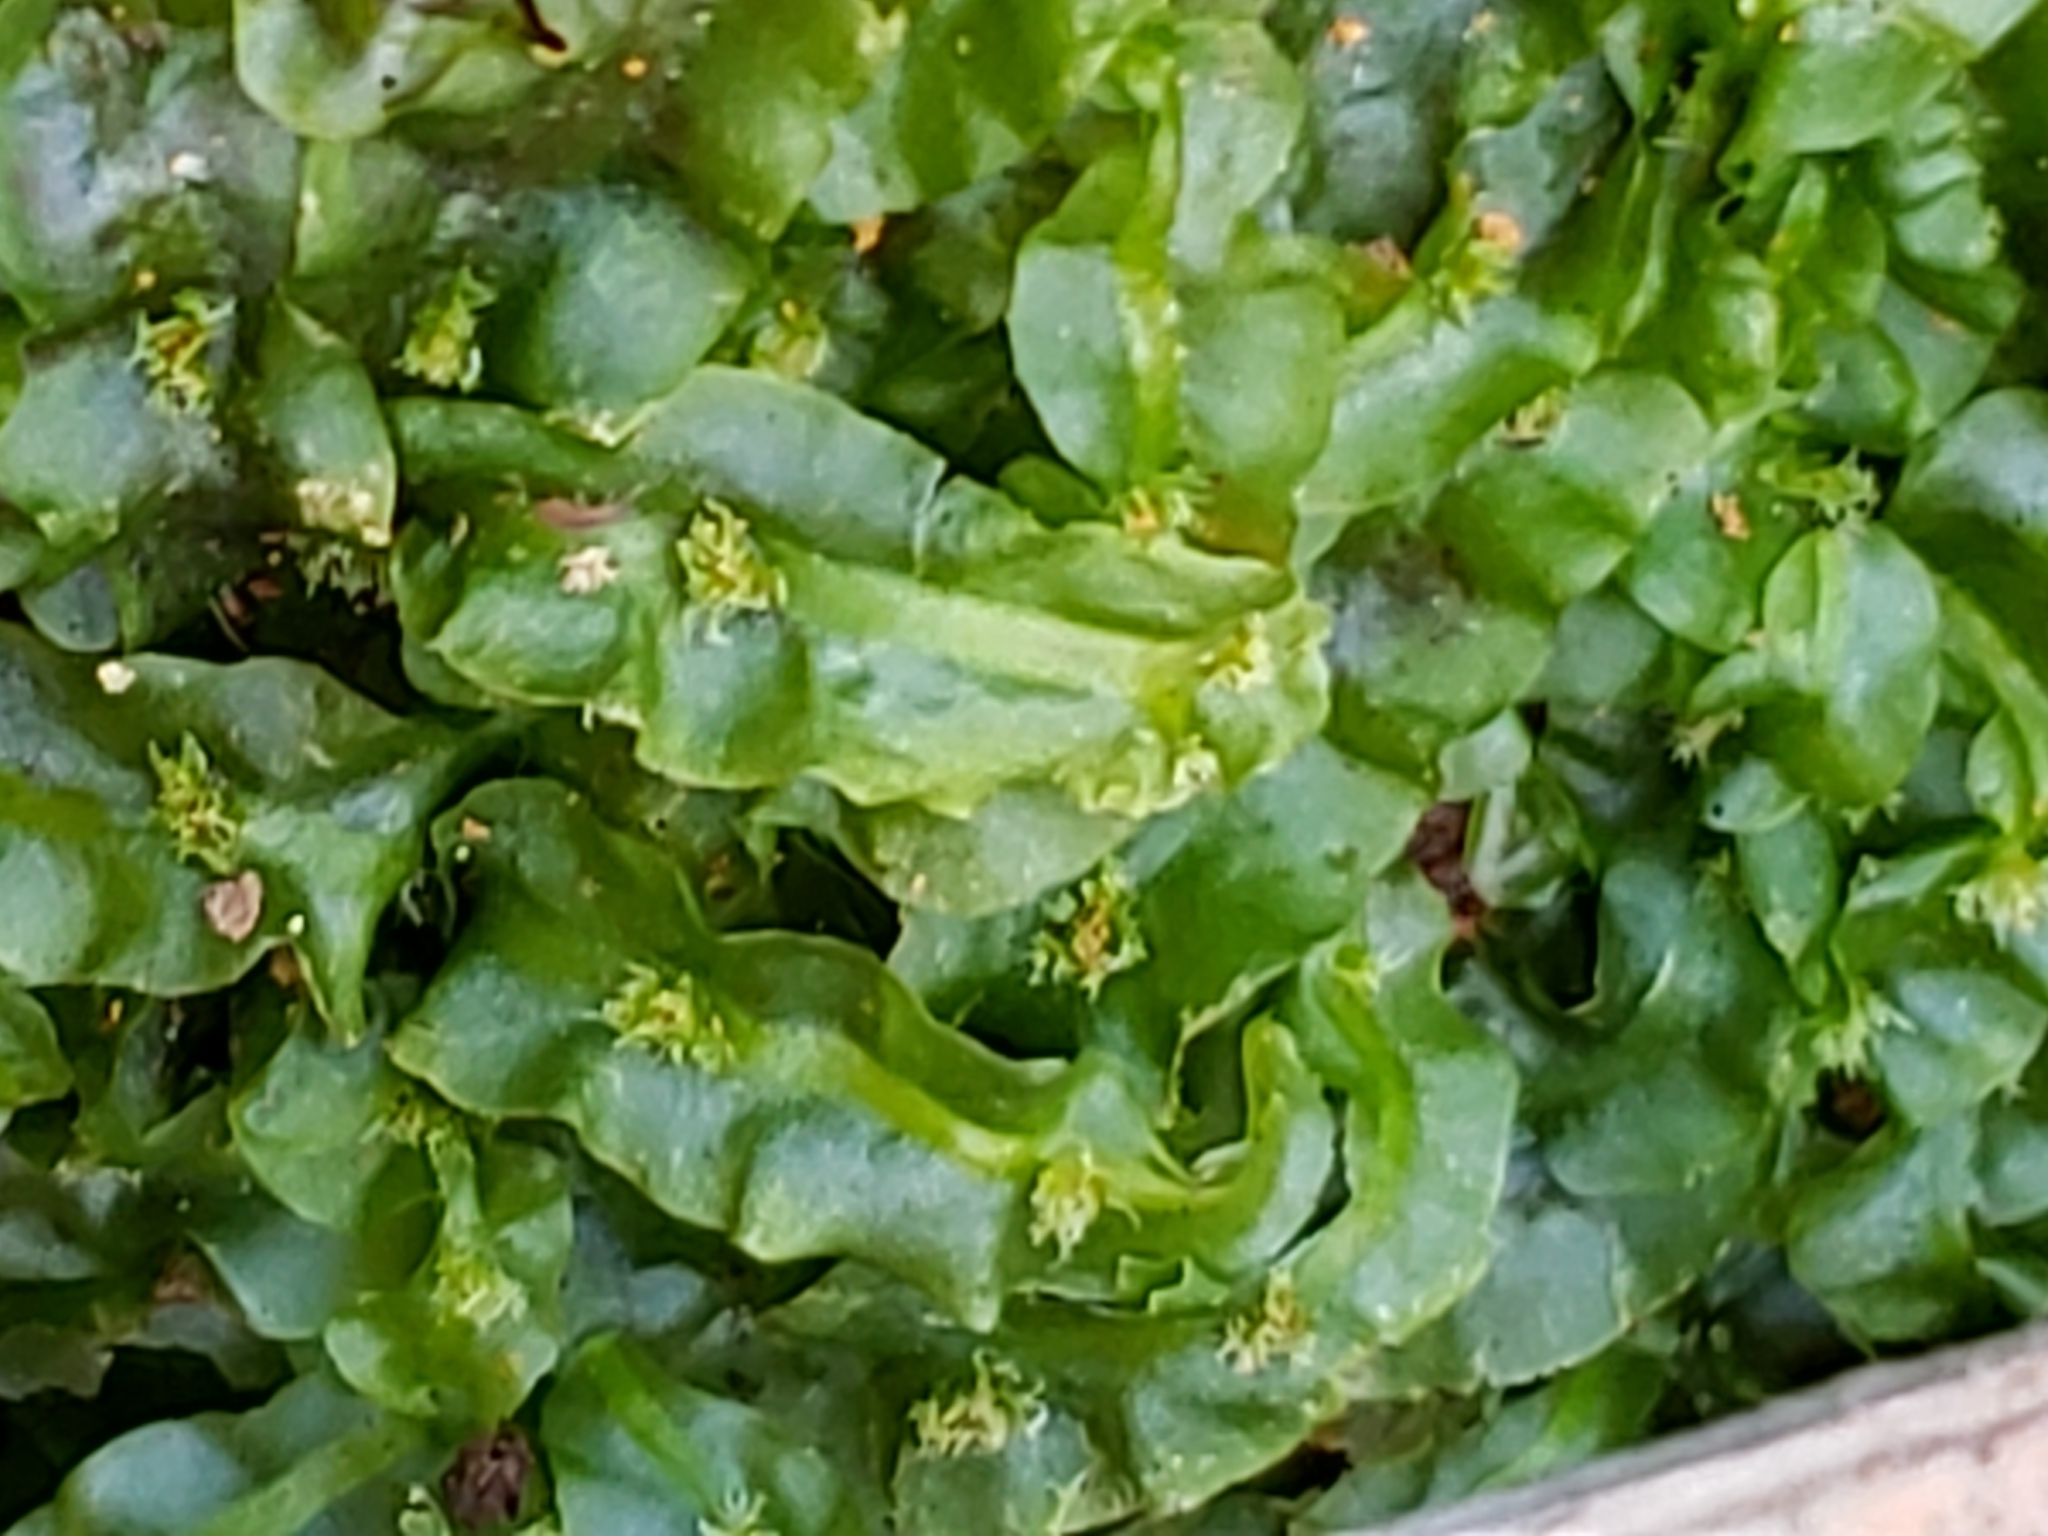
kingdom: Plantae
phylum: Marchantiophyta
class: Jungermanniopsida
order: Pallaviciniales
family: Pallaviciniaceae
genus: Pallavicinia
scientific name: Pallavicinia lyellii
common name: Veilwort
